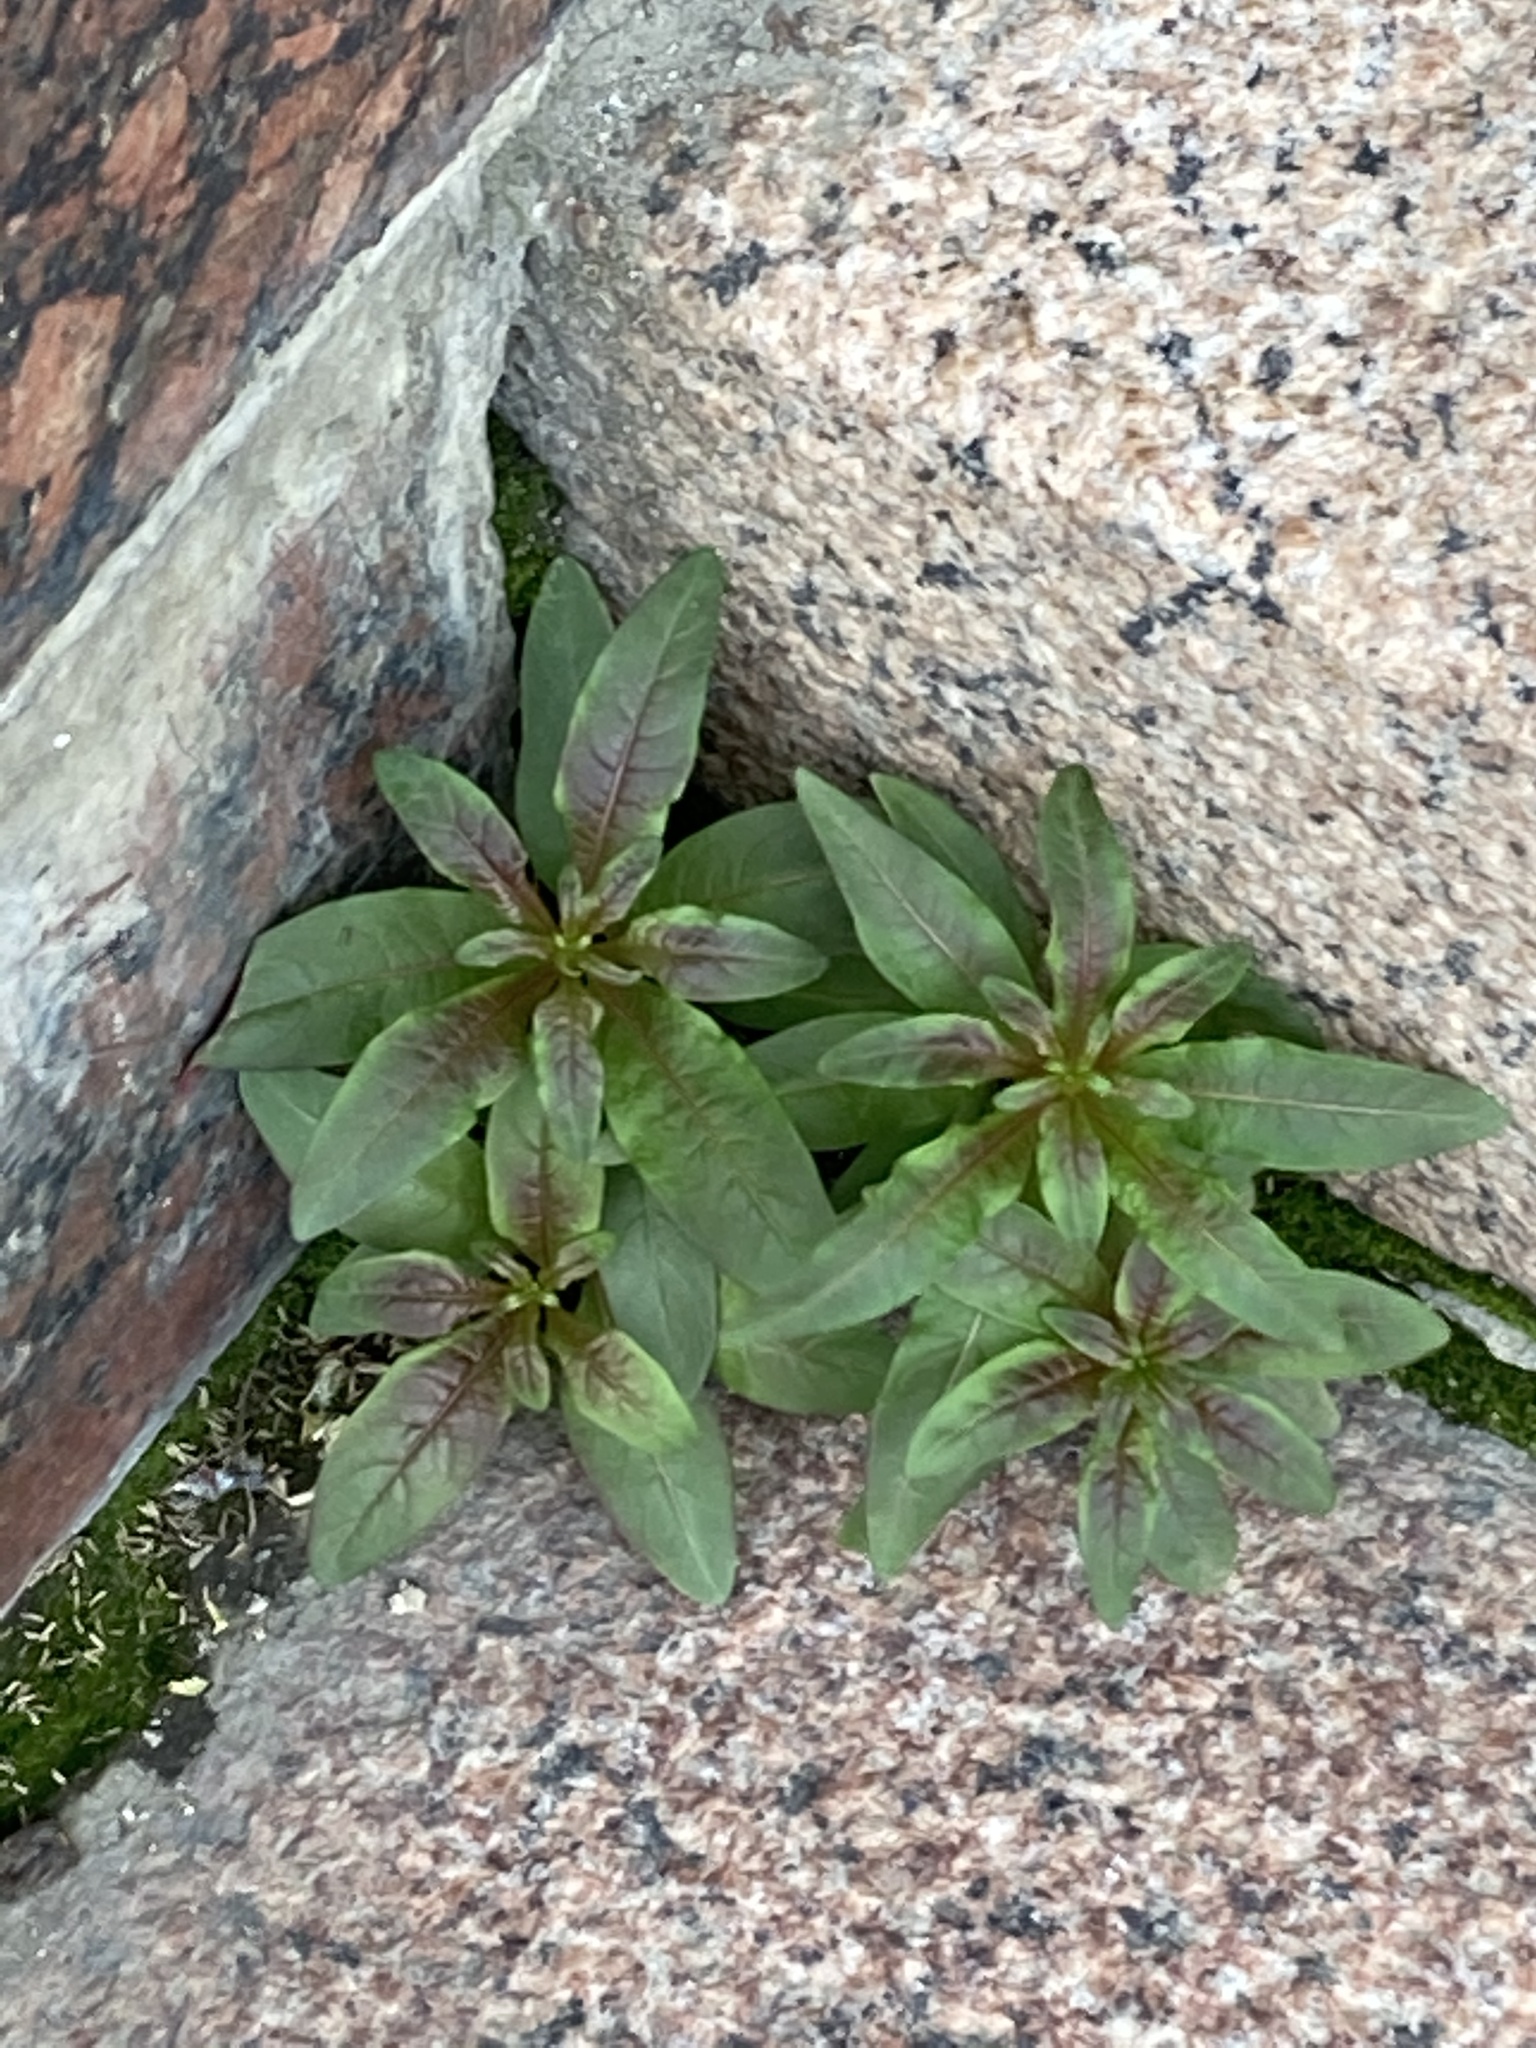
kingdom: Plantae
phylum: Tracheophyta
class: Magnoliopsida
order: Myrtales
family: Onagraceae
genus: Chamaenerion
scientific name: Chamaenerion angustifolium
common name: Fireweed
